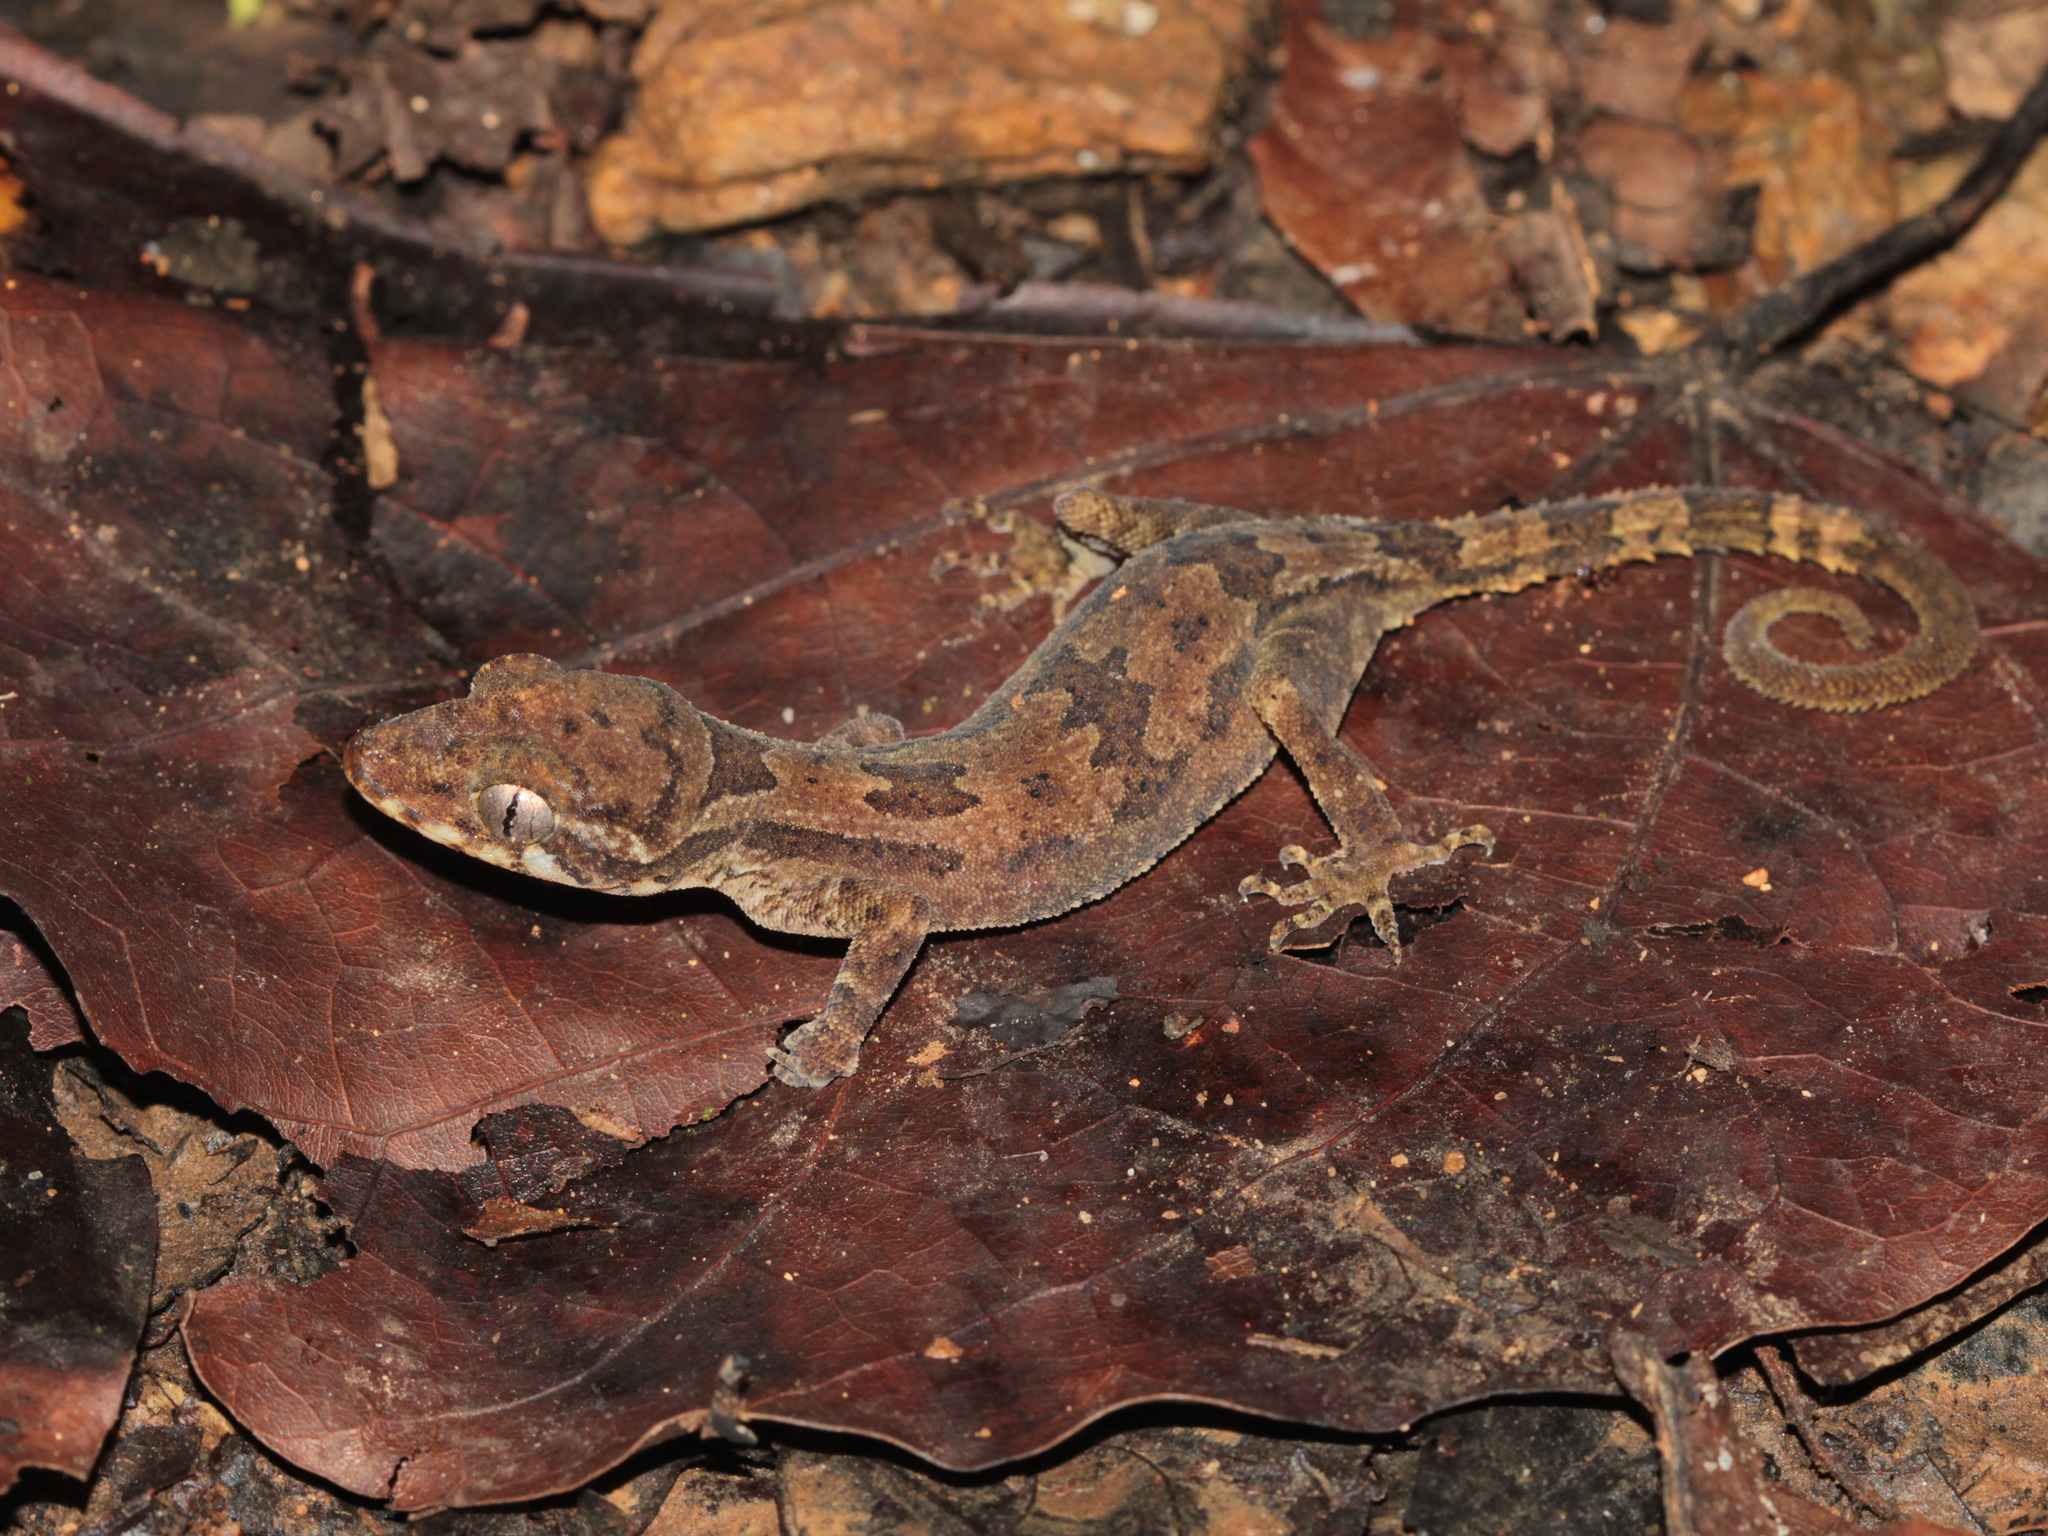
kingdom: Animalia
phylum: Chordata
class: Squamata
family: Gekkonidae
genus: Cyrtodactylus
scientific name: Cyrtodactylus brevipalmatus
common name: Kampuchea bow-fingered gecko
